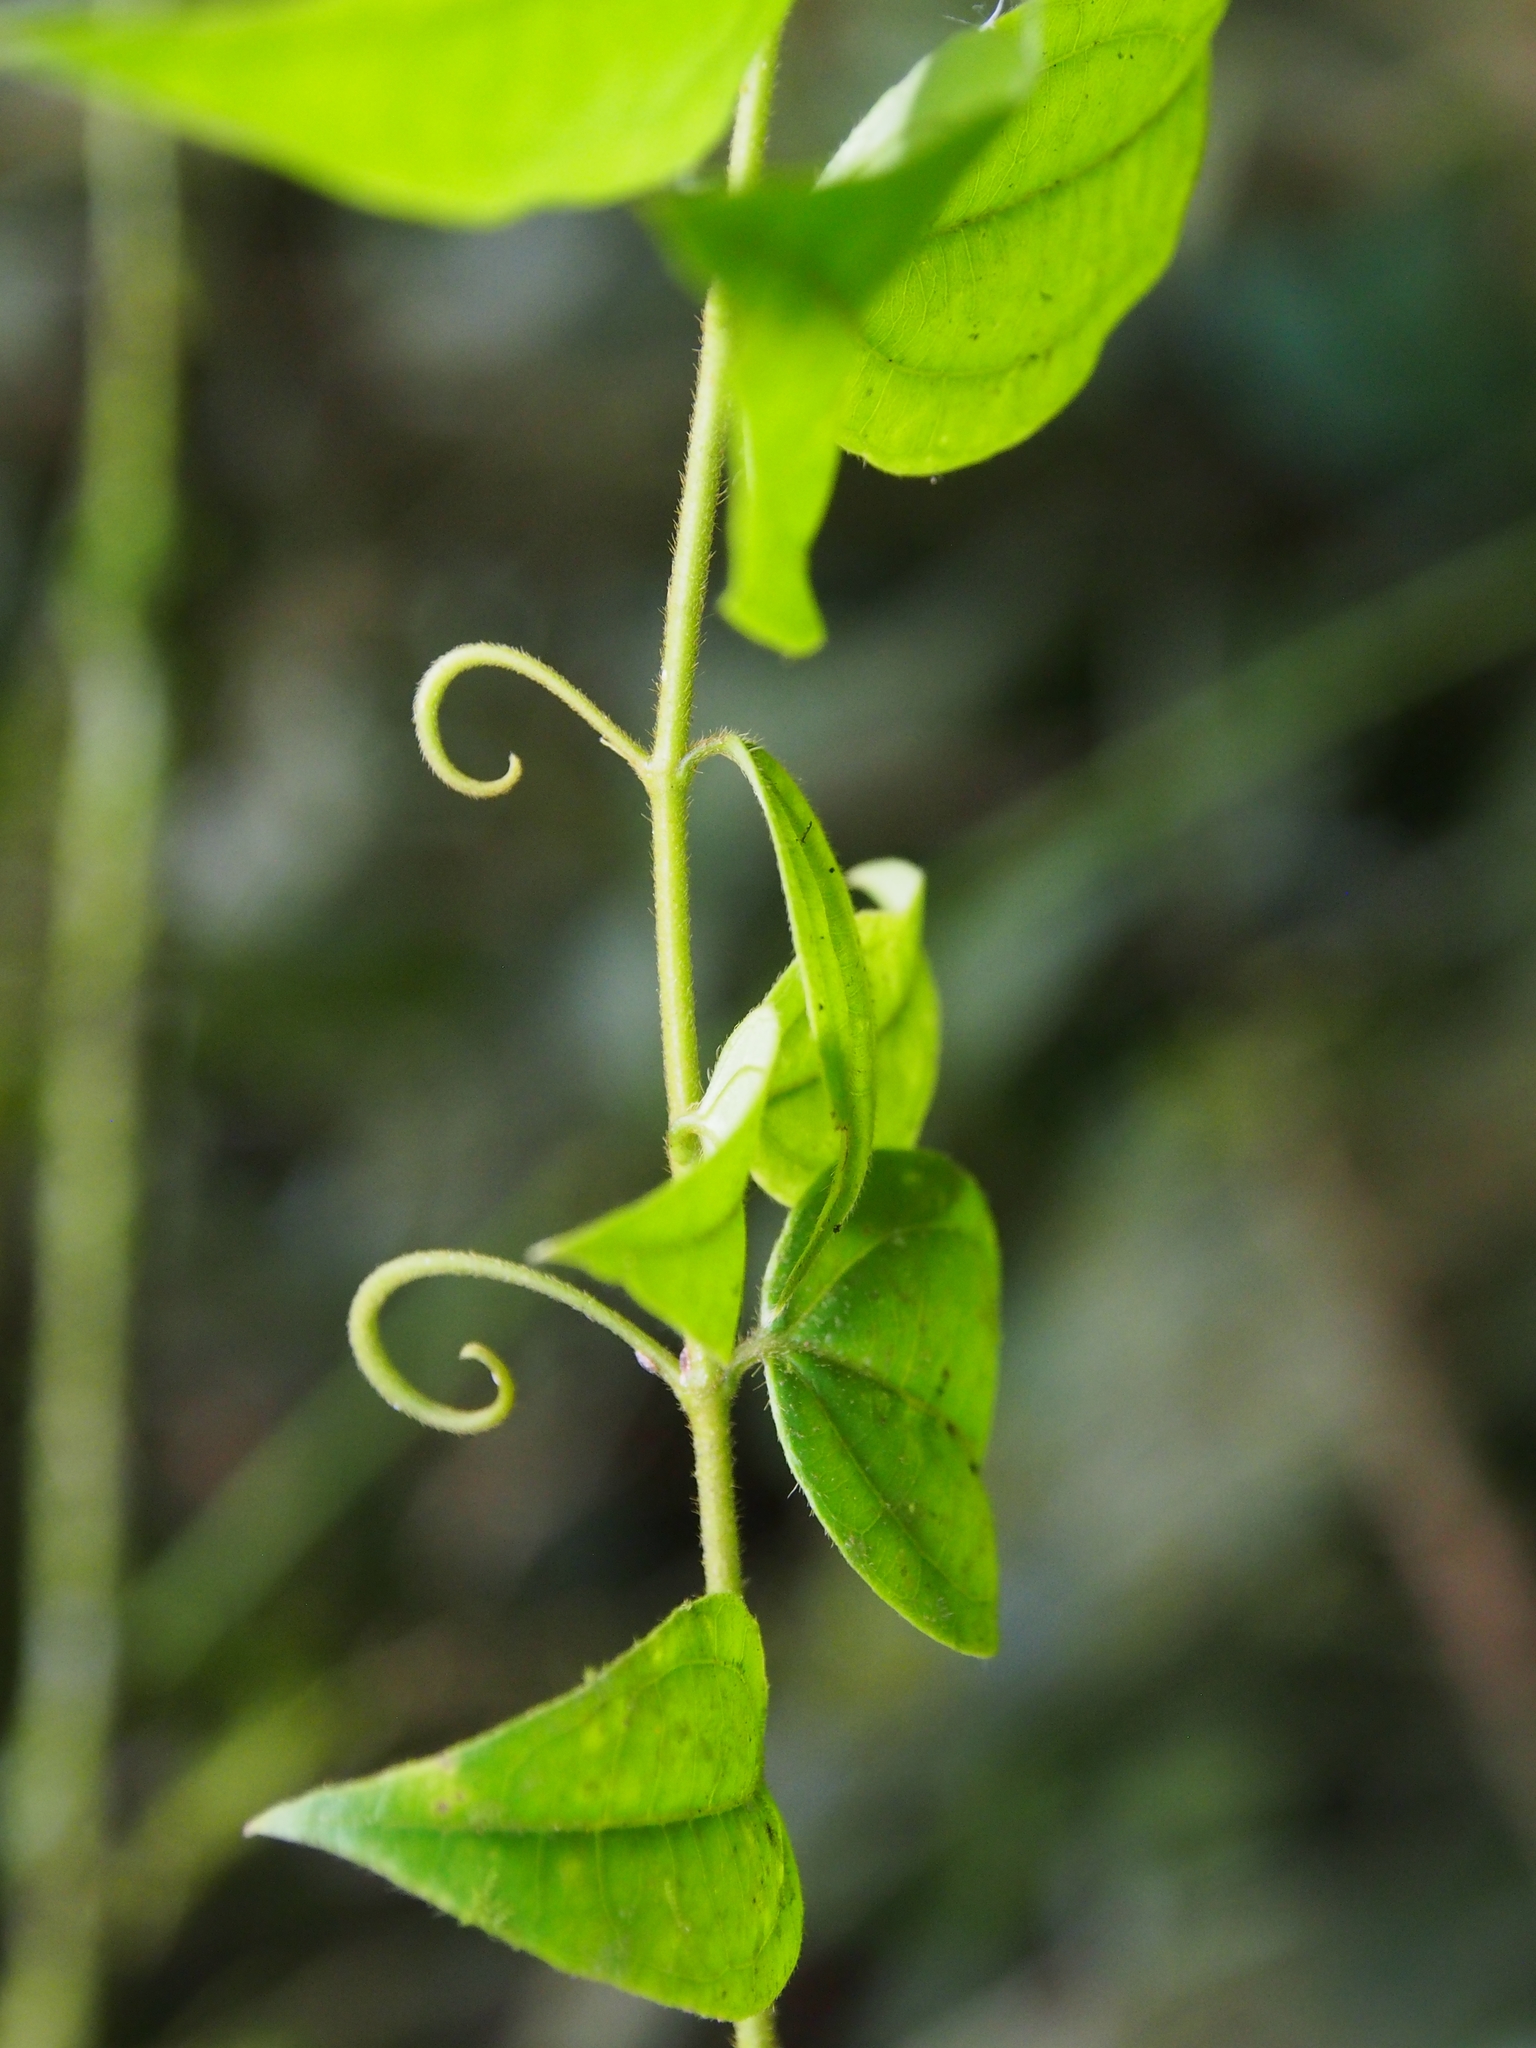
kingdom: Plantae
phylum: Tracheophyta
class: Magnoliopsida
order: Gentianales
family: Loganiaceae
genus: Strychnos
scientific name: Strychnos toxifera
